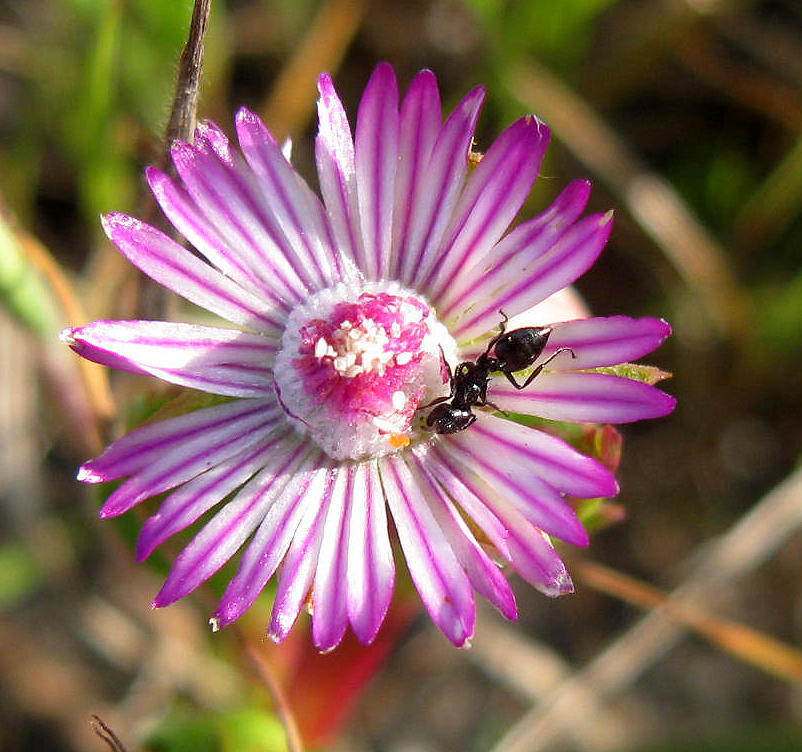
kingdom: Animalia
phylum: Arthropoda
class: Insecta
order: Hymenoptera
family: Formicidae
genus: Crematogaster
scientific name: Crematogaster peringueyi
